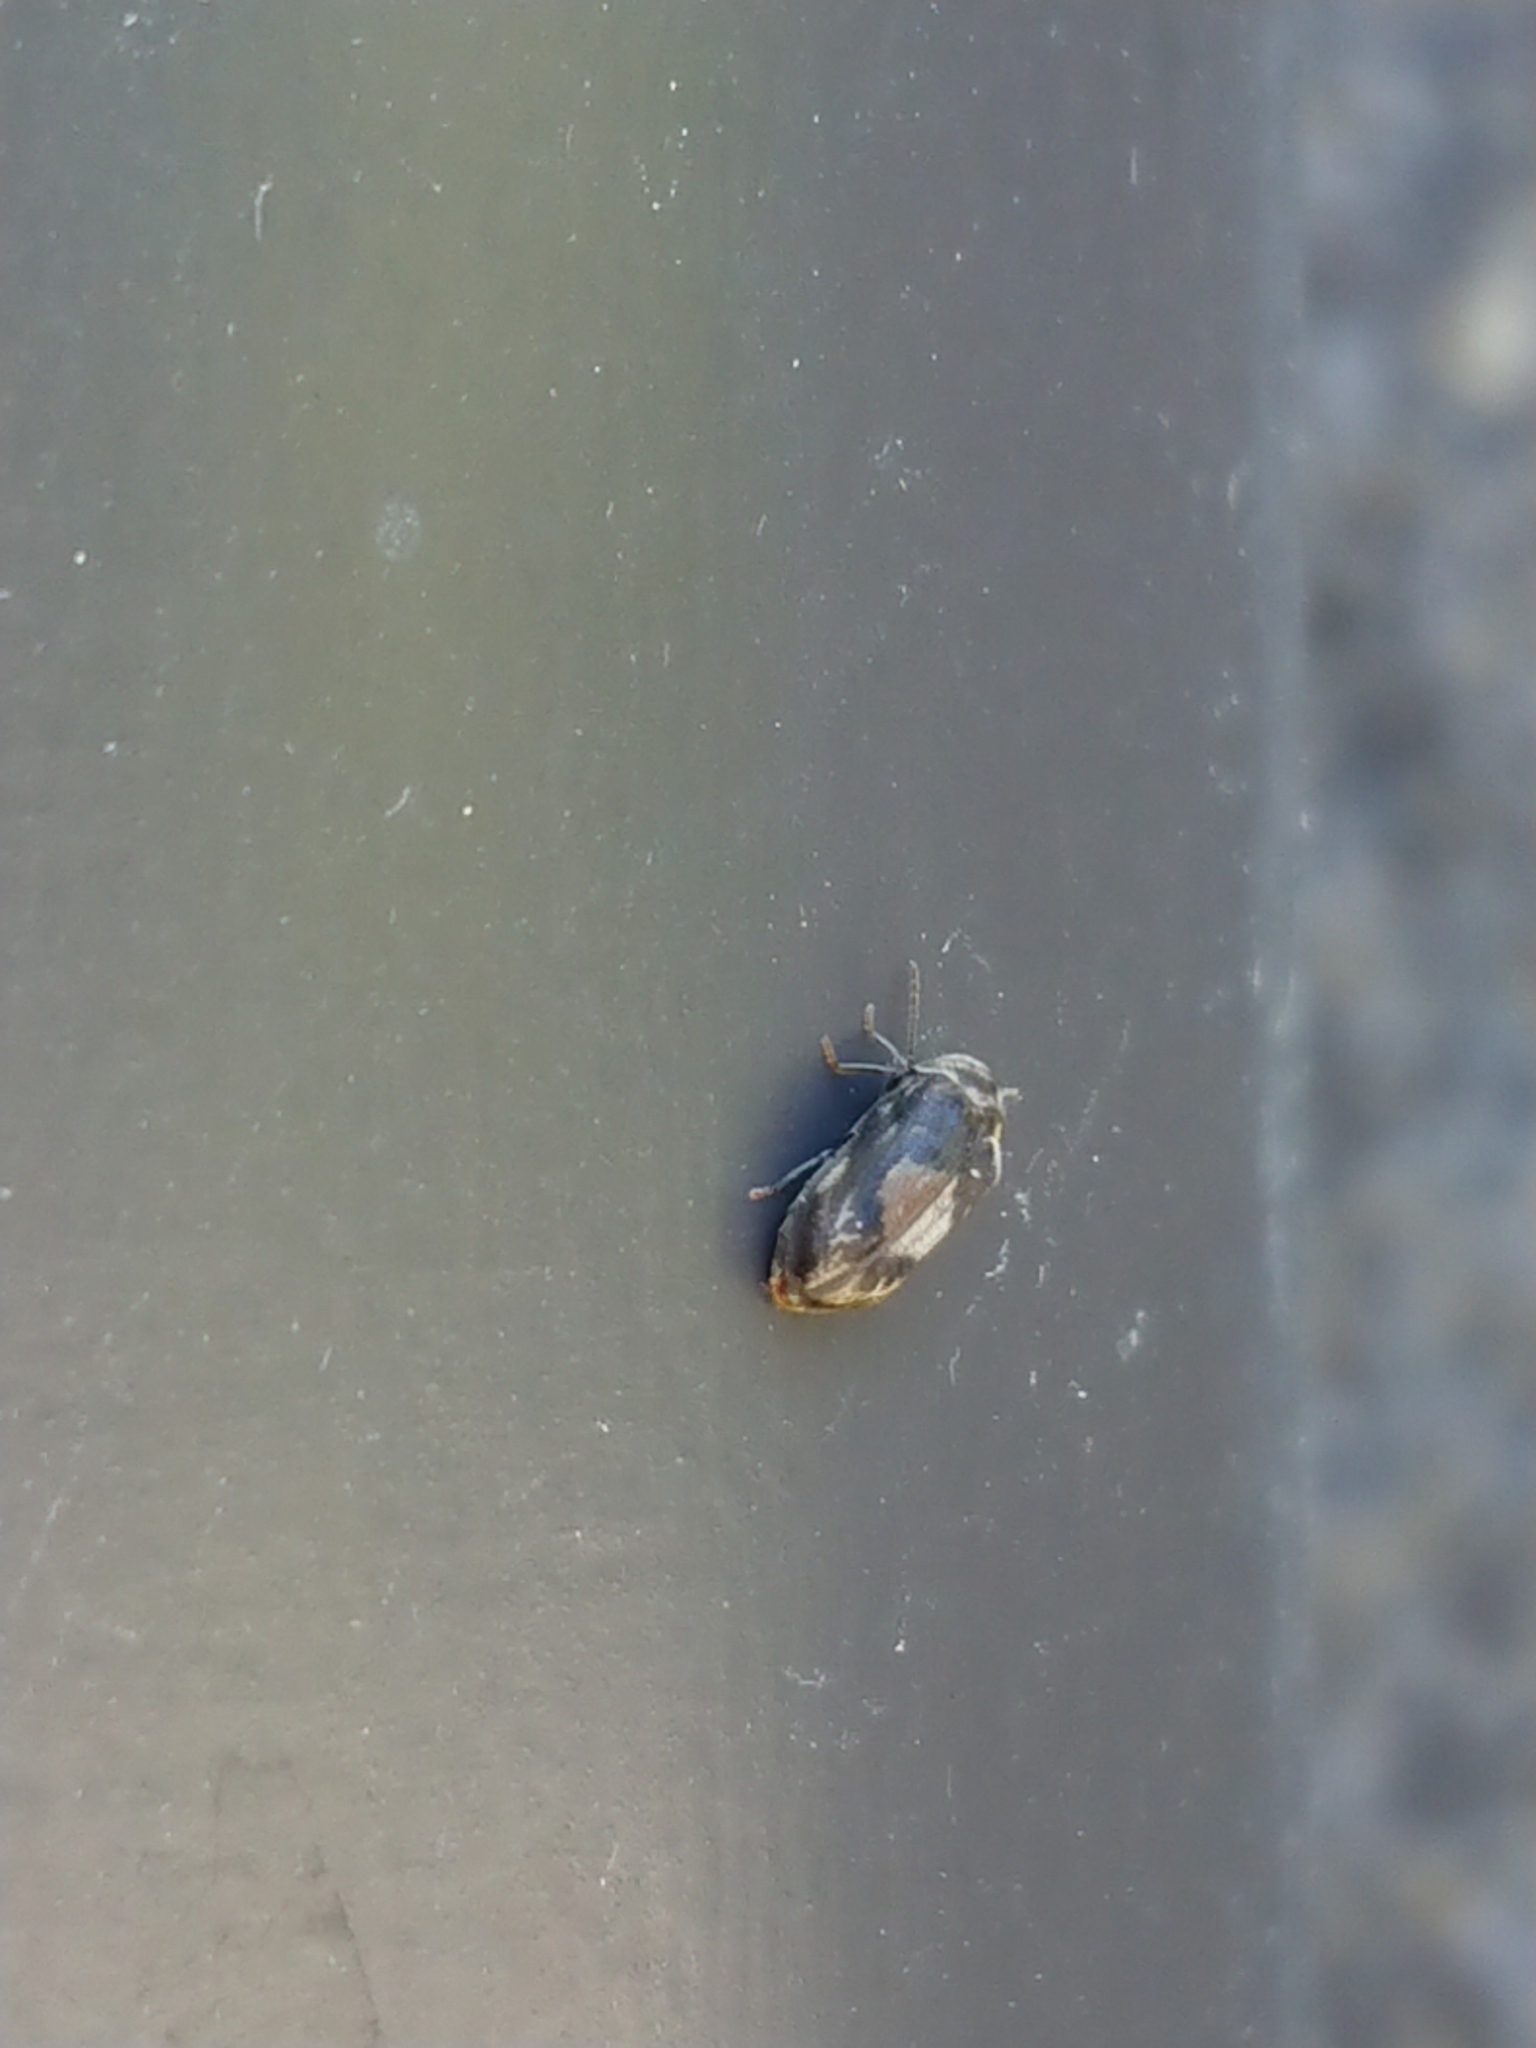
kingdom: Animalia
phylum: Arthropoda
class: Insecta
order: Coleoptera
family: Ptinidae
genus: Leanobium
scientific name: Leanobium
